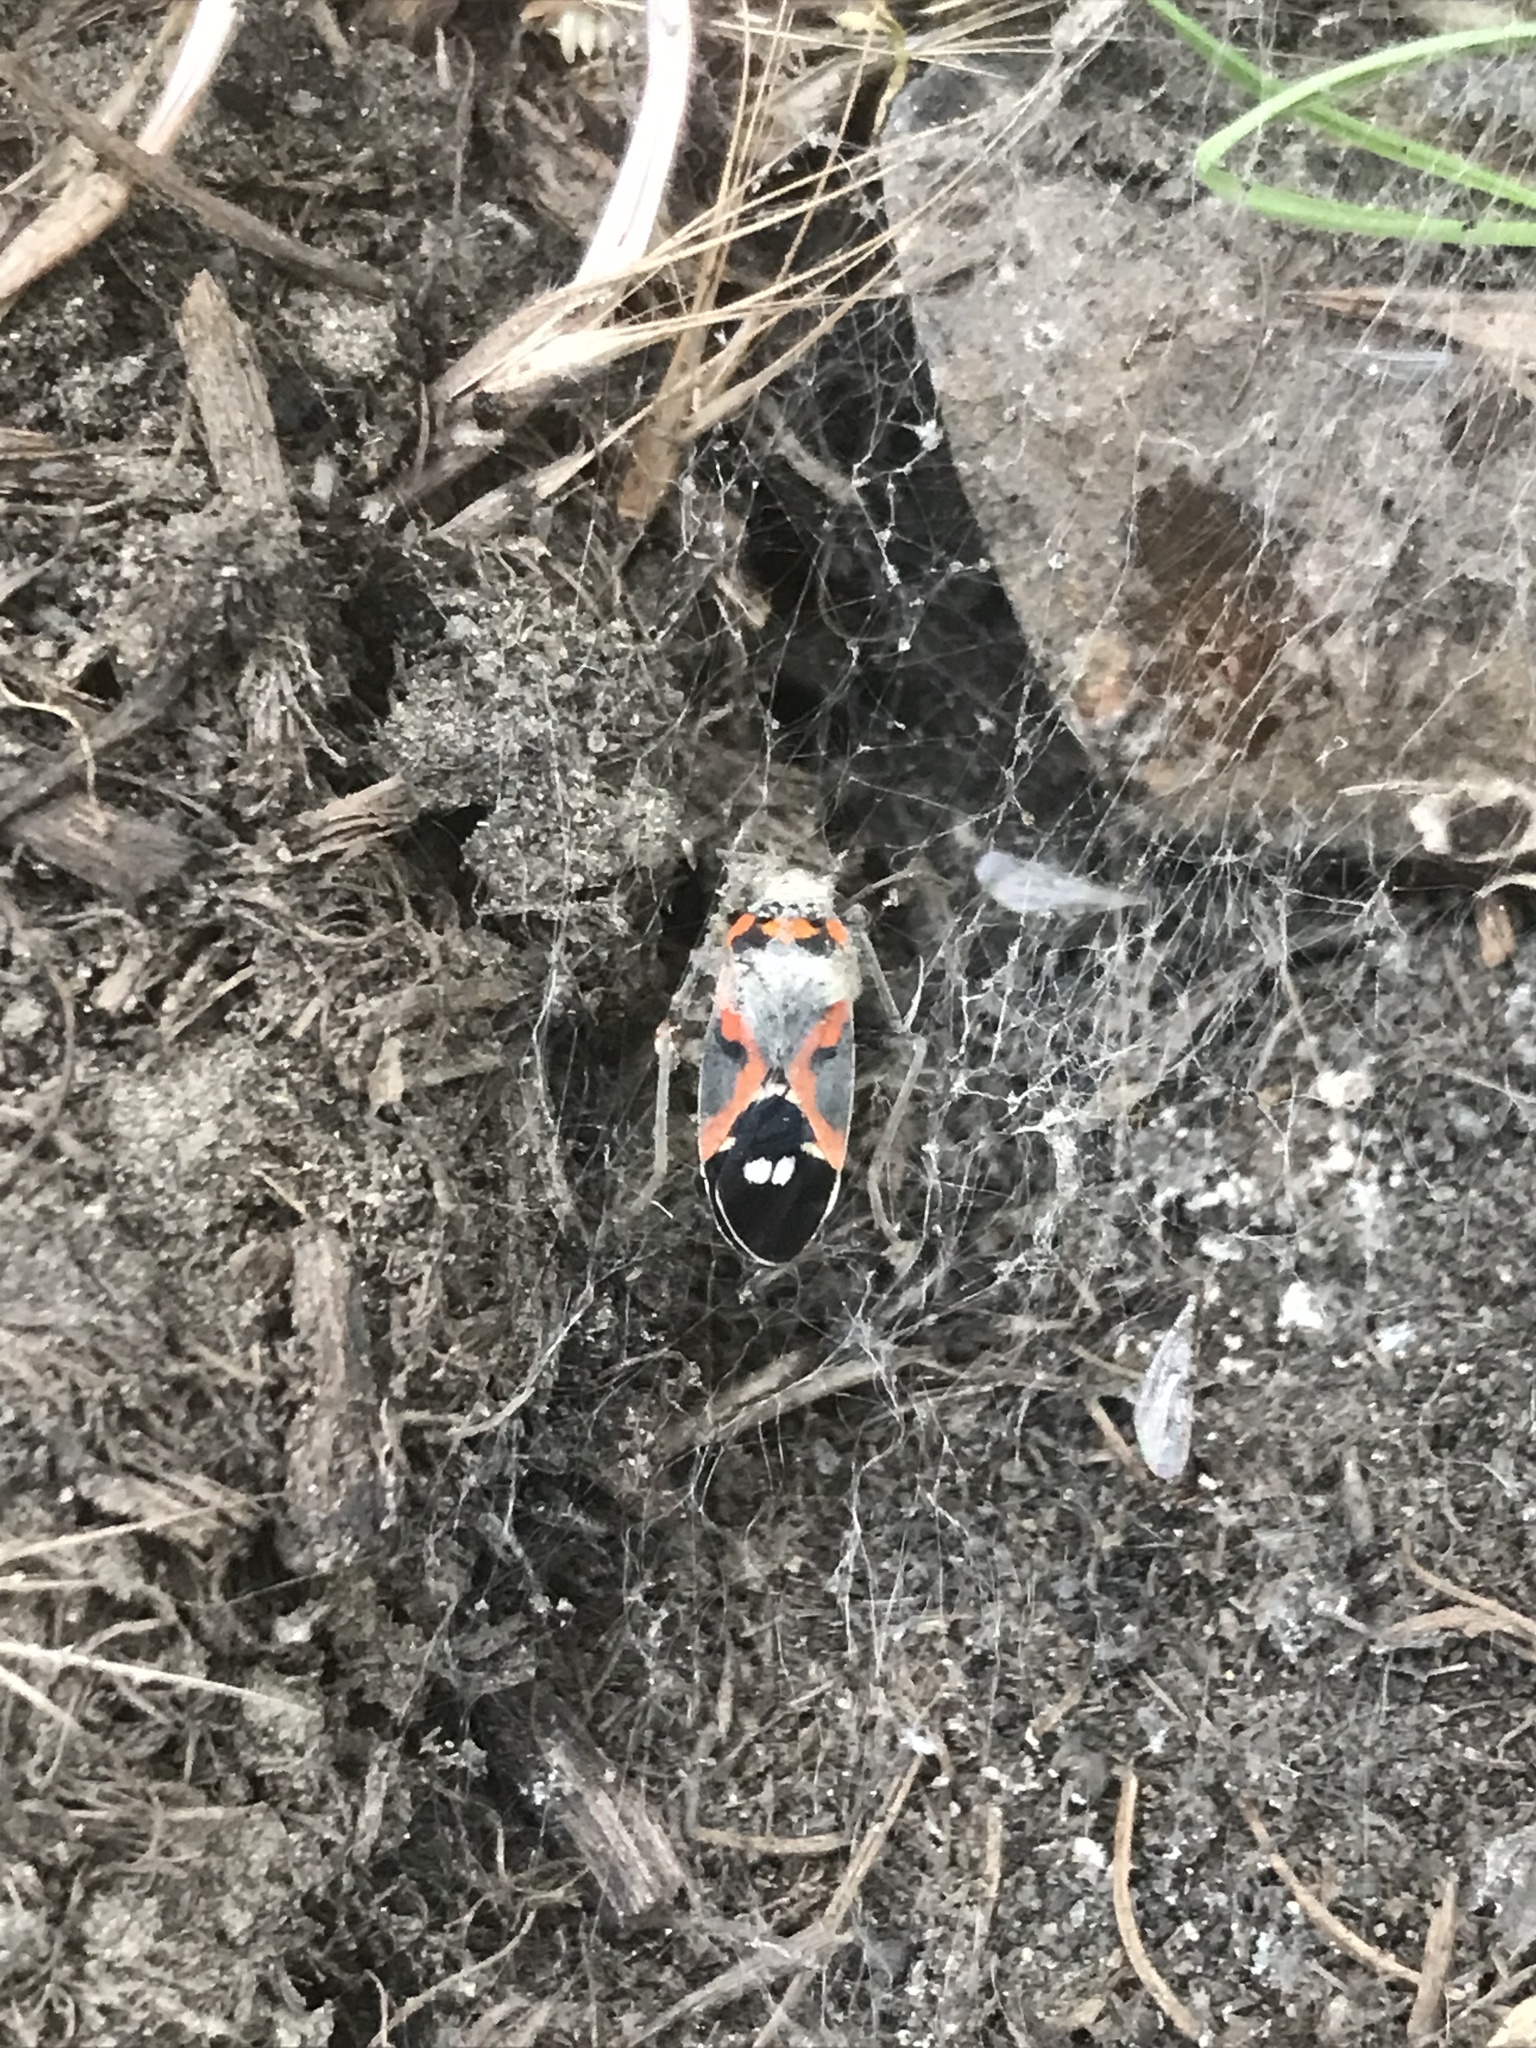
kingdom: Animalia
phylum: Arthropoda
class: Insecta
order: Hemiptera
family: Lygaeidae
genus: Lygaeus
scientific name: Lygaeus kalmii
